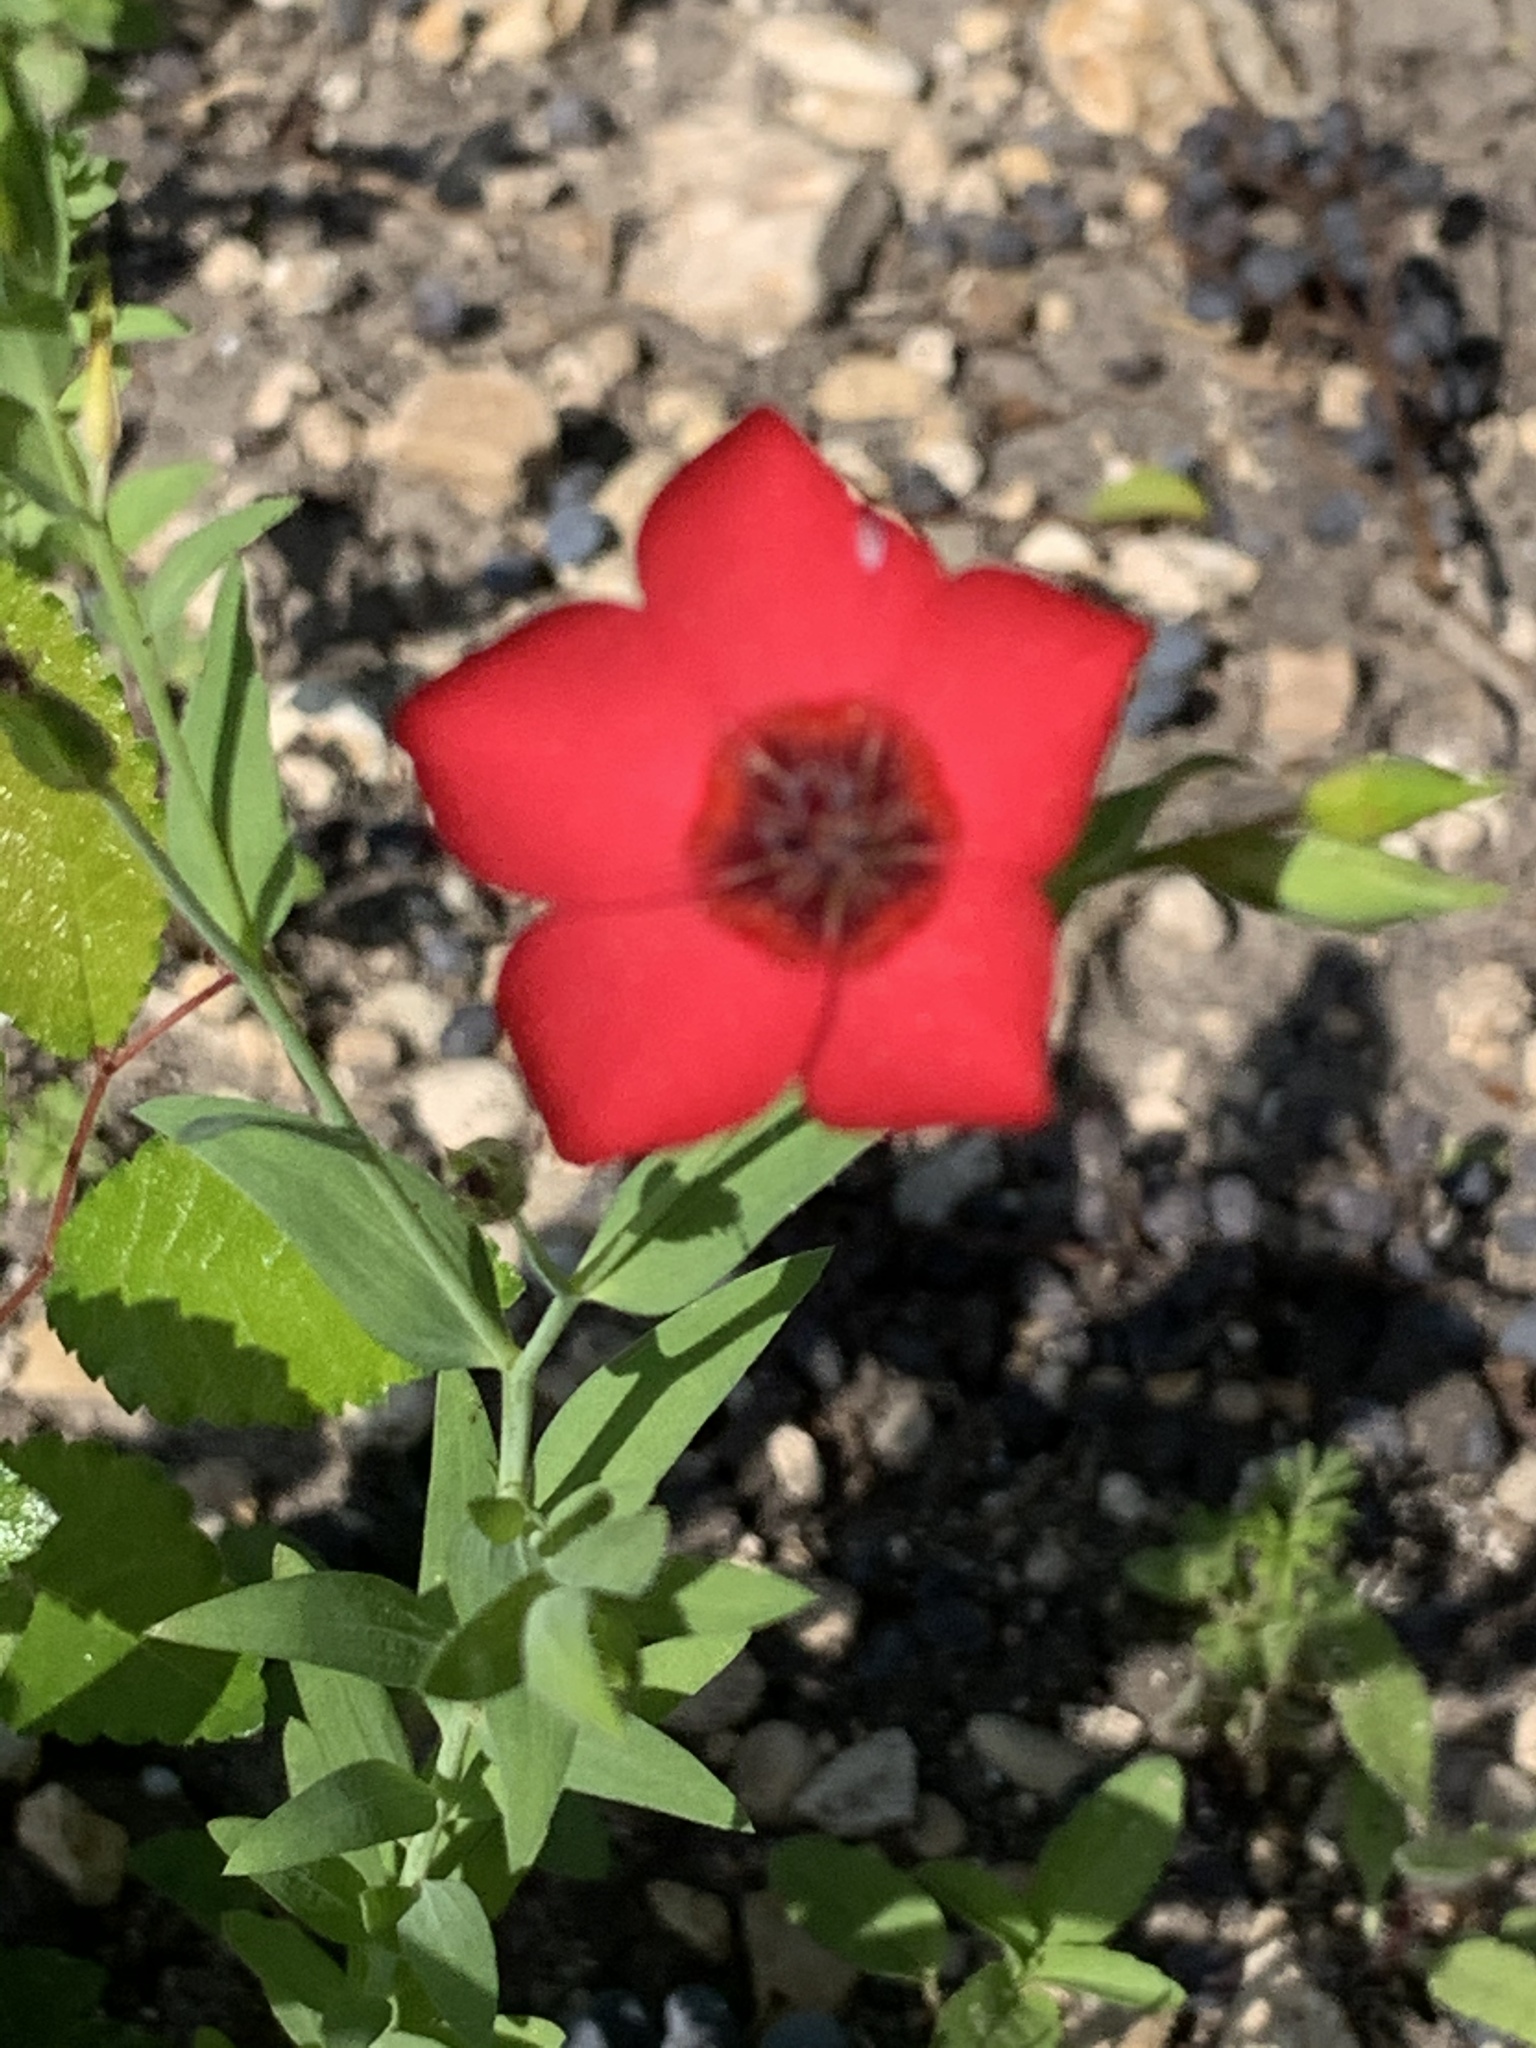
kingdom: Plantae
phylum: Tracheophyta
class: Magnoliopsida
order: Malpighiales
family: Linaceae
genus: Linum
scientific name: Linum grandiflorum
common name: Crimson flax
